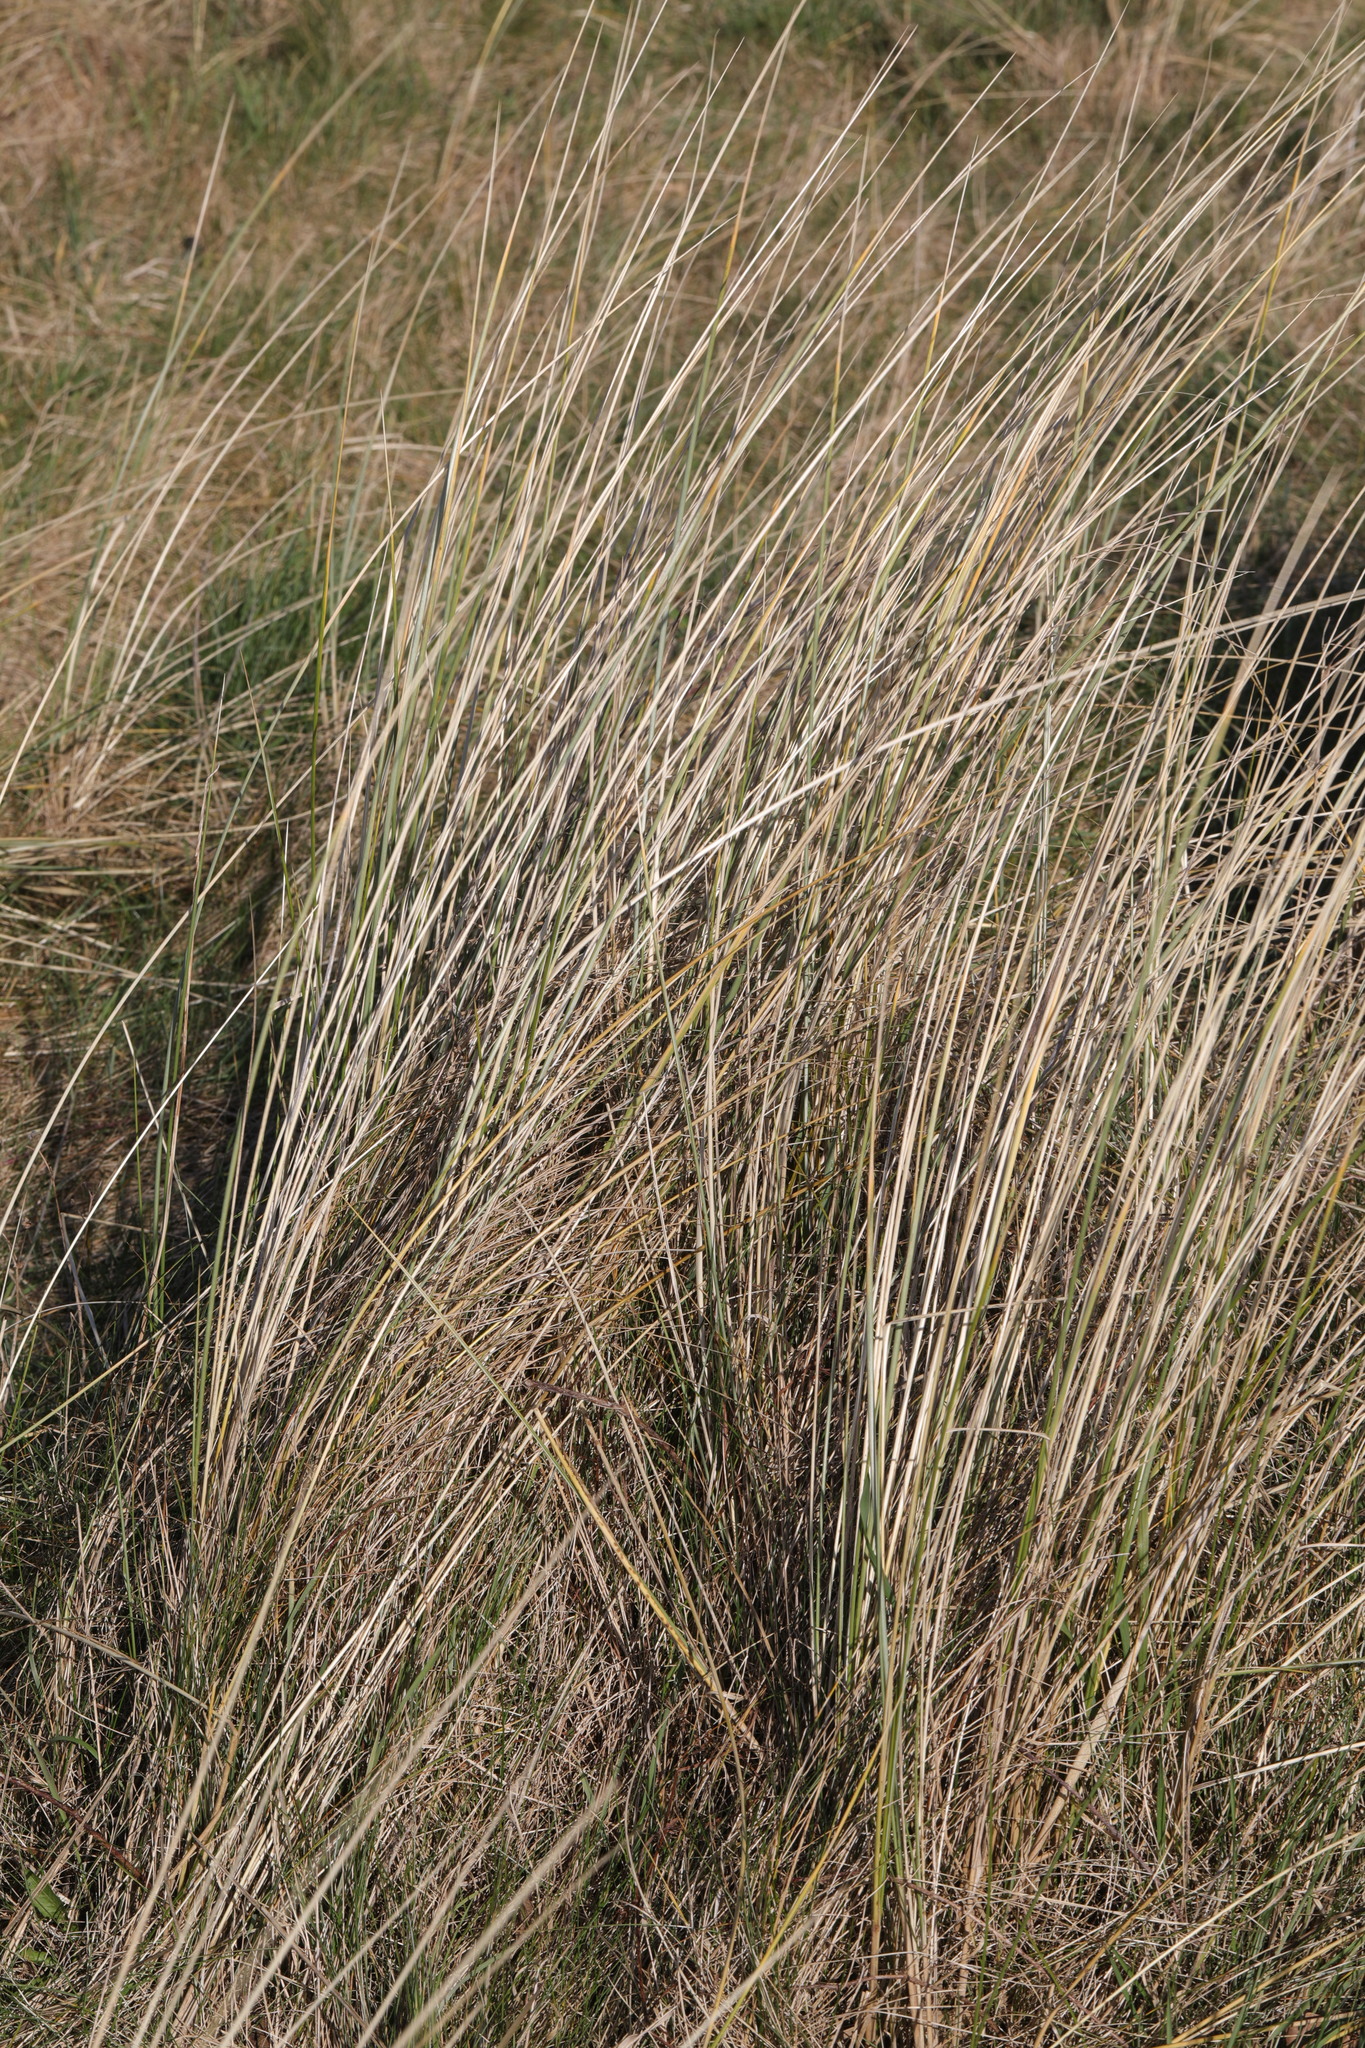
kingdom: Plantae
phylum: Tracheophyta
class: Liliopsida
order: Poales
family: Poaceae
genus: Calamagrostis
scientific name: Calamagrostis arenaria
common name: European beachgrass
